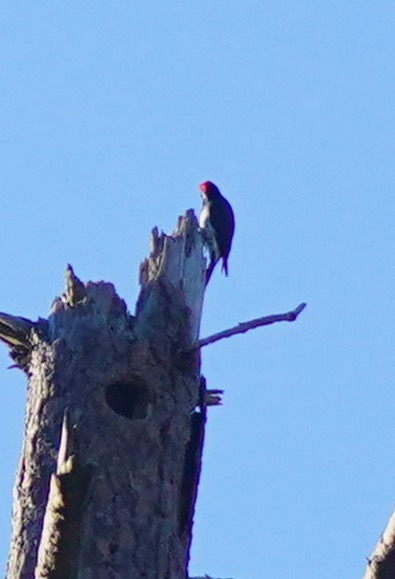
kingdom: Animalia
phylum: Chordata
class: Aves
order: Piciformes
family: Picidae
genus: Melanerpes
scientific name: Melanerpes formicivorus
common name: Acorn woodpecker
